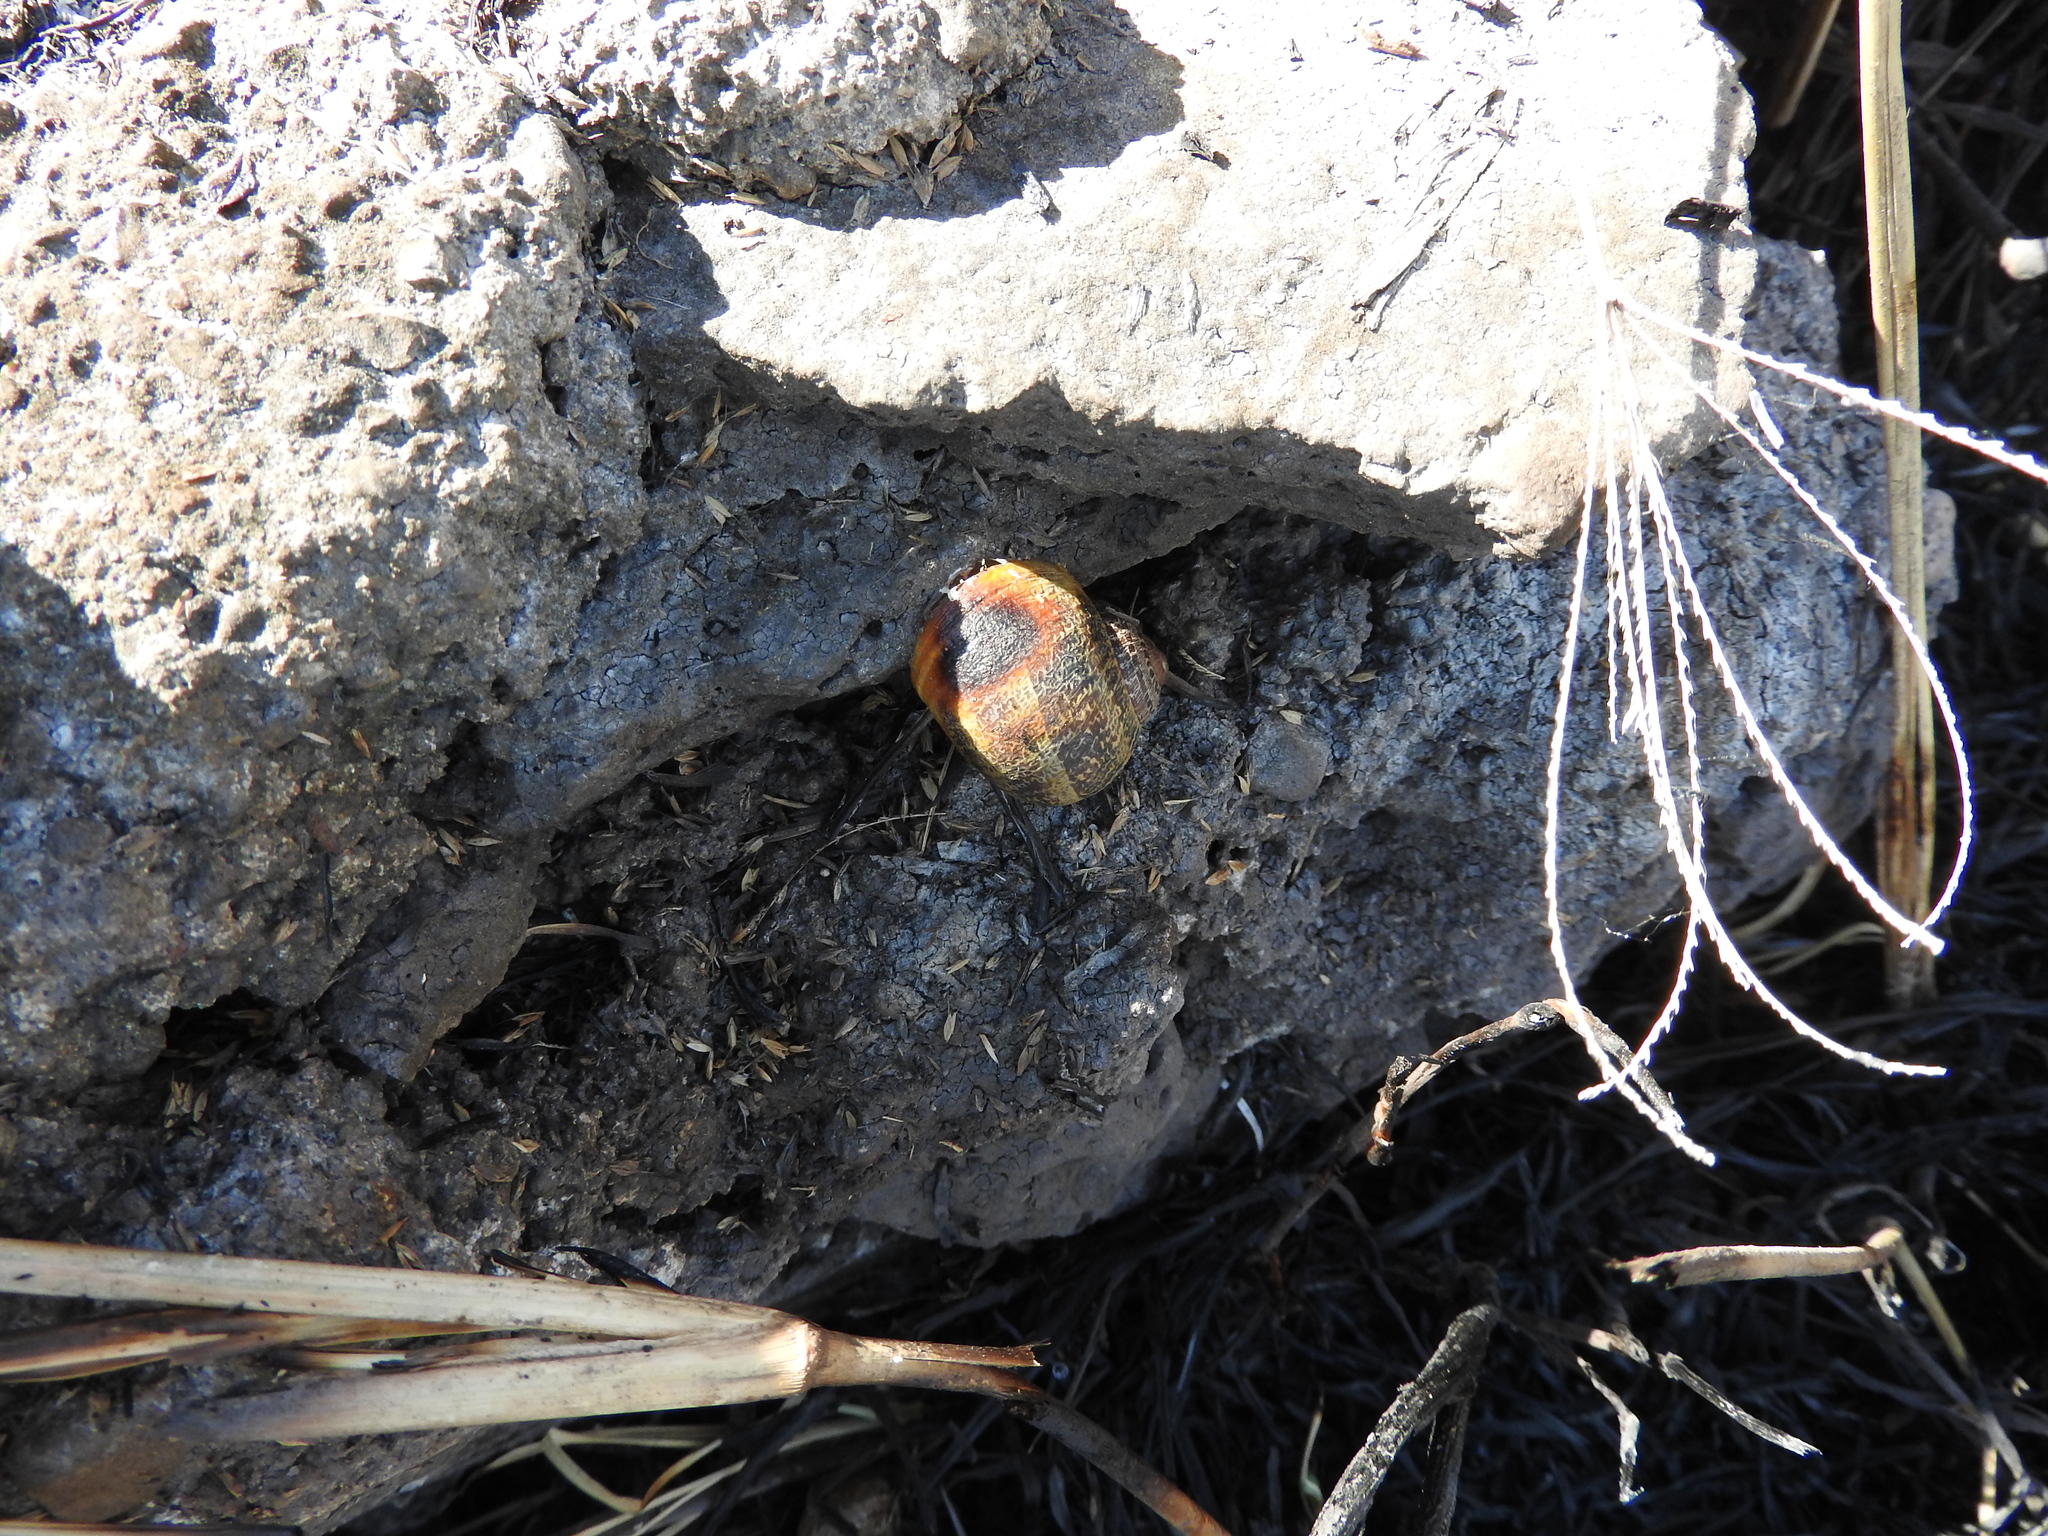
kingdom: Animalia
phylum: Mollusca
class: Gastropoda
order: Stylommatophora
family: Helicidae
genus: Cornu
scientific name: Cornu aspersum
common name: Brown garden snail
